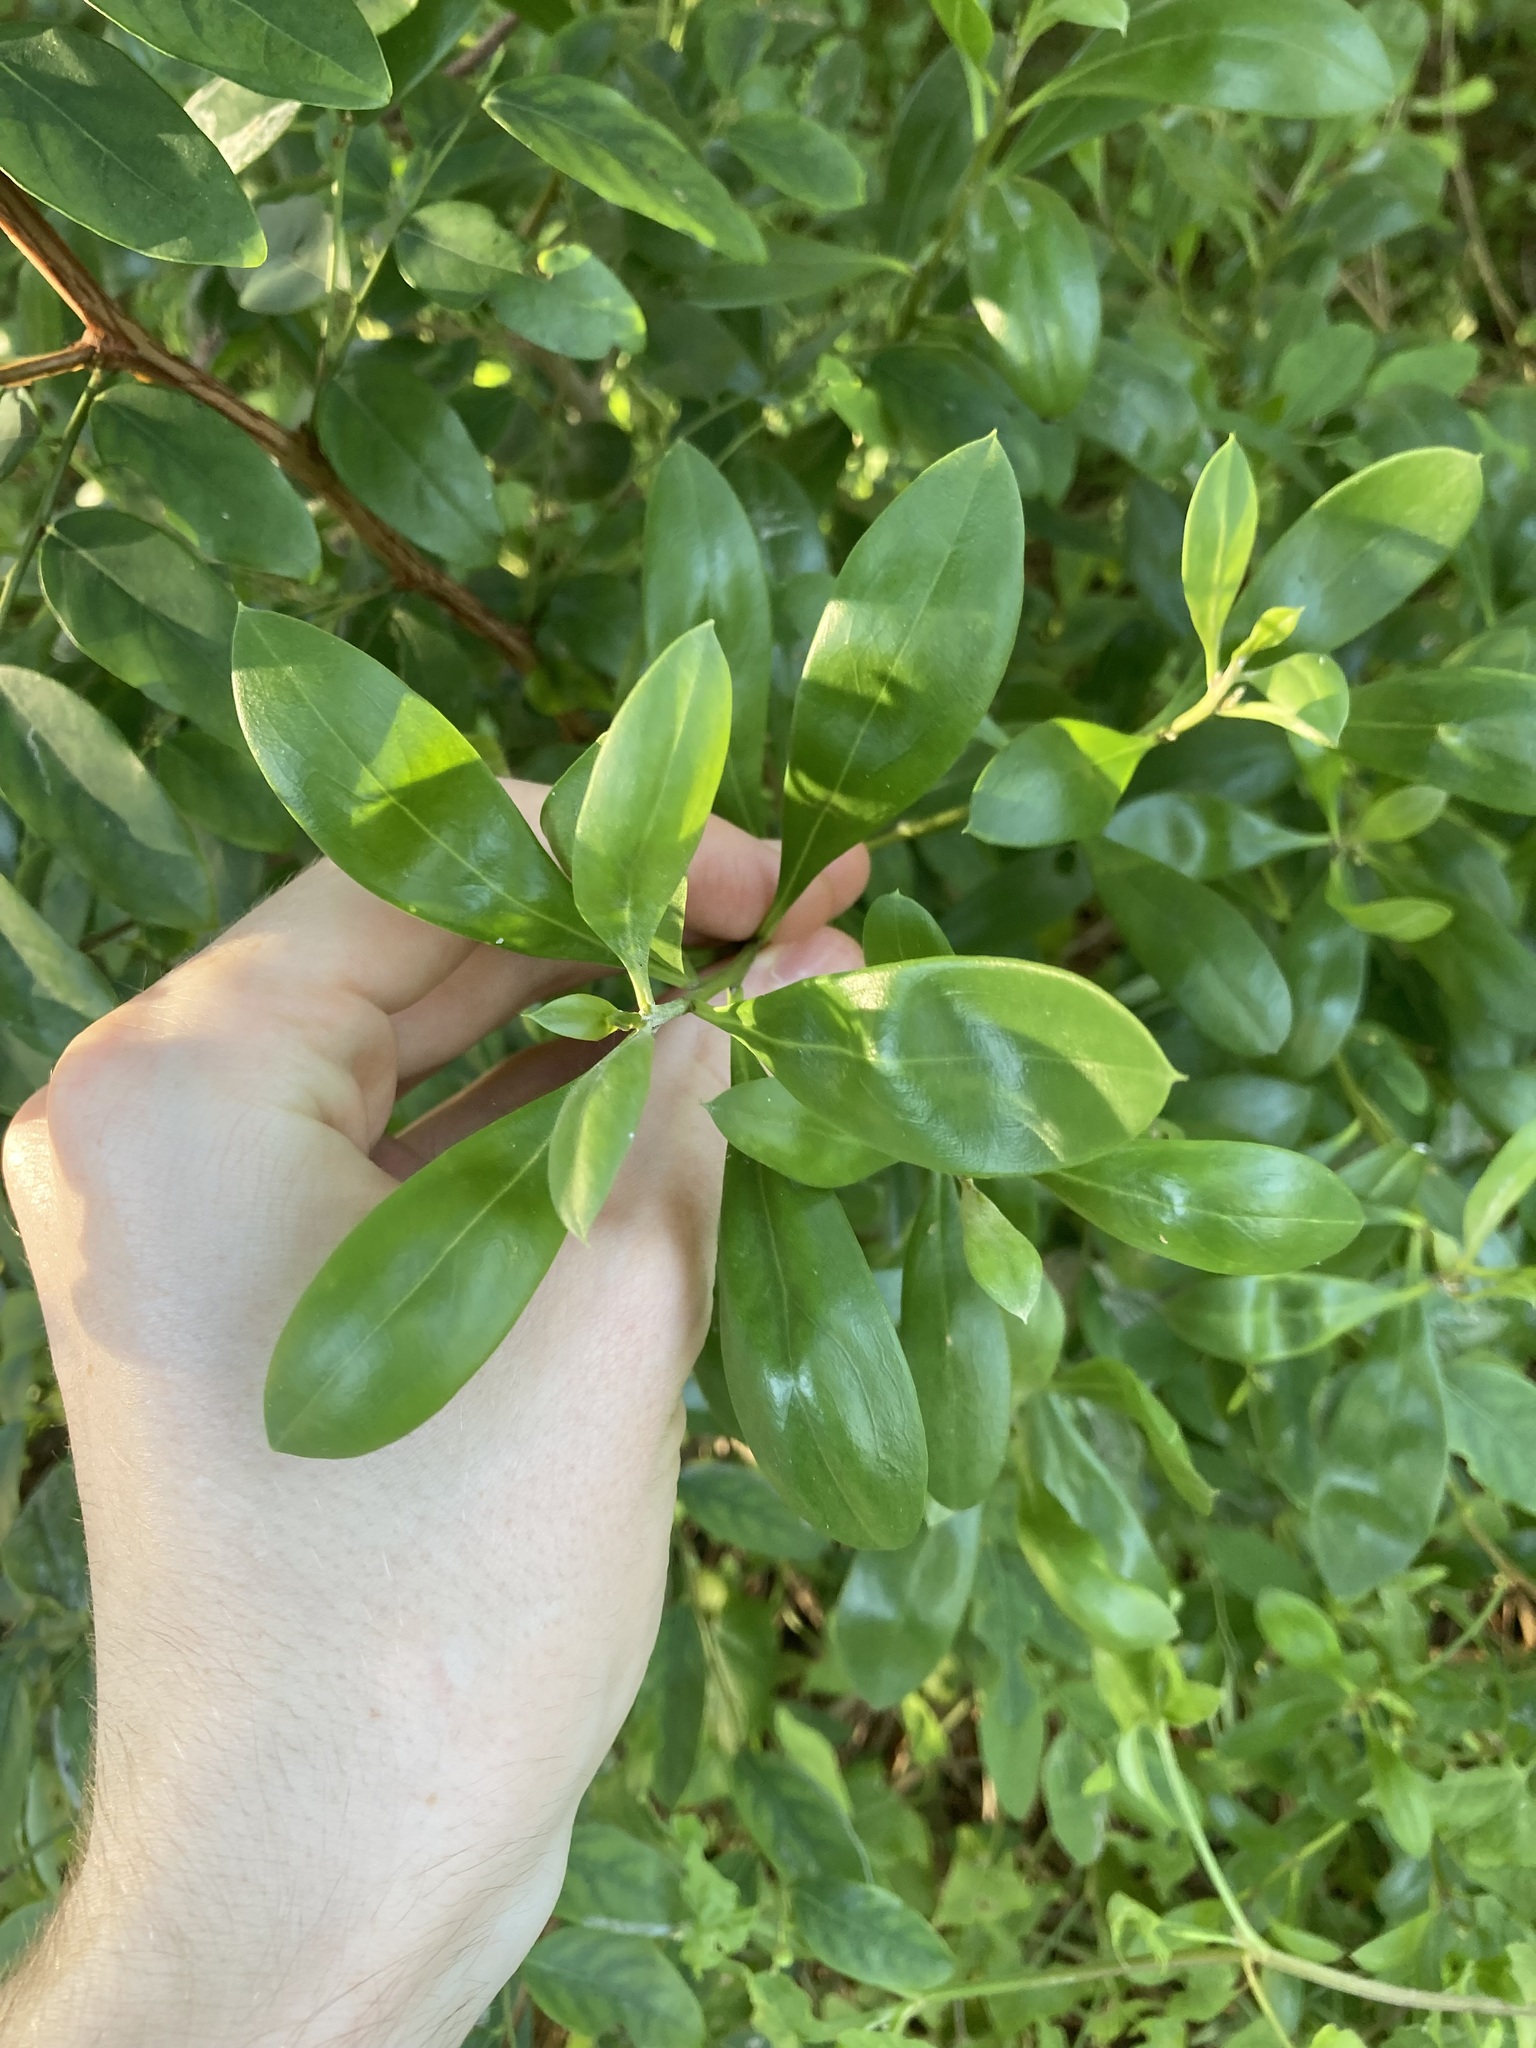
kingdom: Plantae
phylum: Tracheophyta
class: Magnoliopsida
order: Lamiales
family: Scrophulariaceae
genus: Myoporum
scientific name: Myoporum boninense
